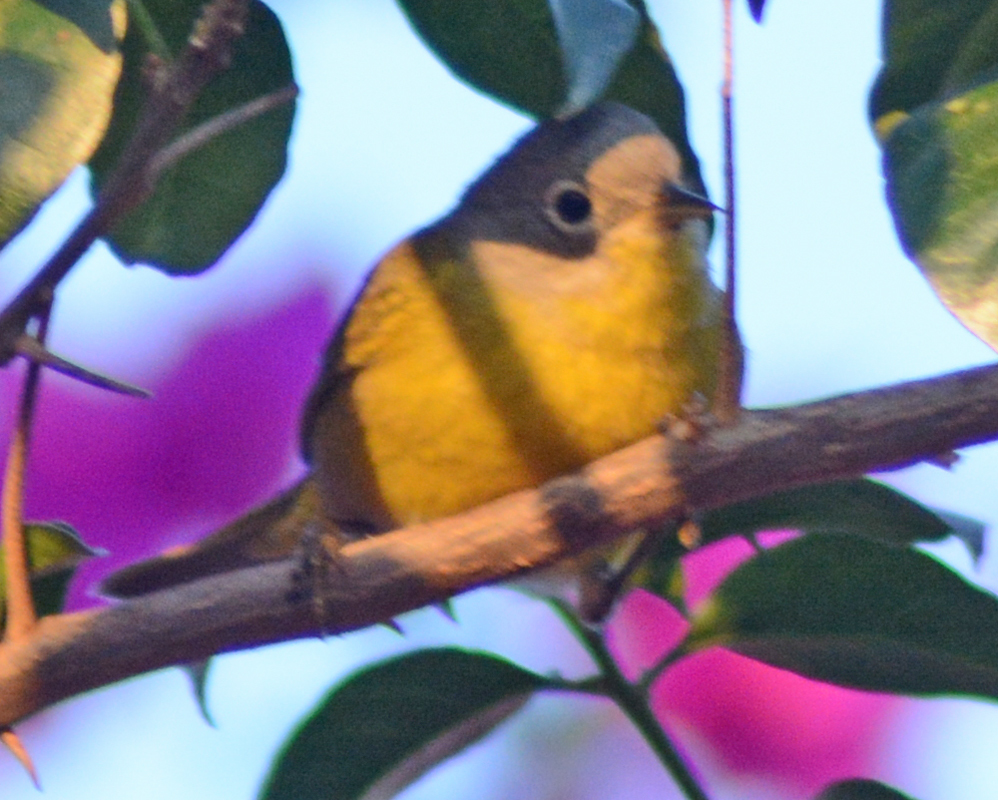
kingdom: Animalia
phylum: Chordata
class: Aves
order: Passeriformes
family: Parulidae
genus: Leiothlypis
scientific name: Leiothlypis ruficapilla
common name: Nashville warbler
